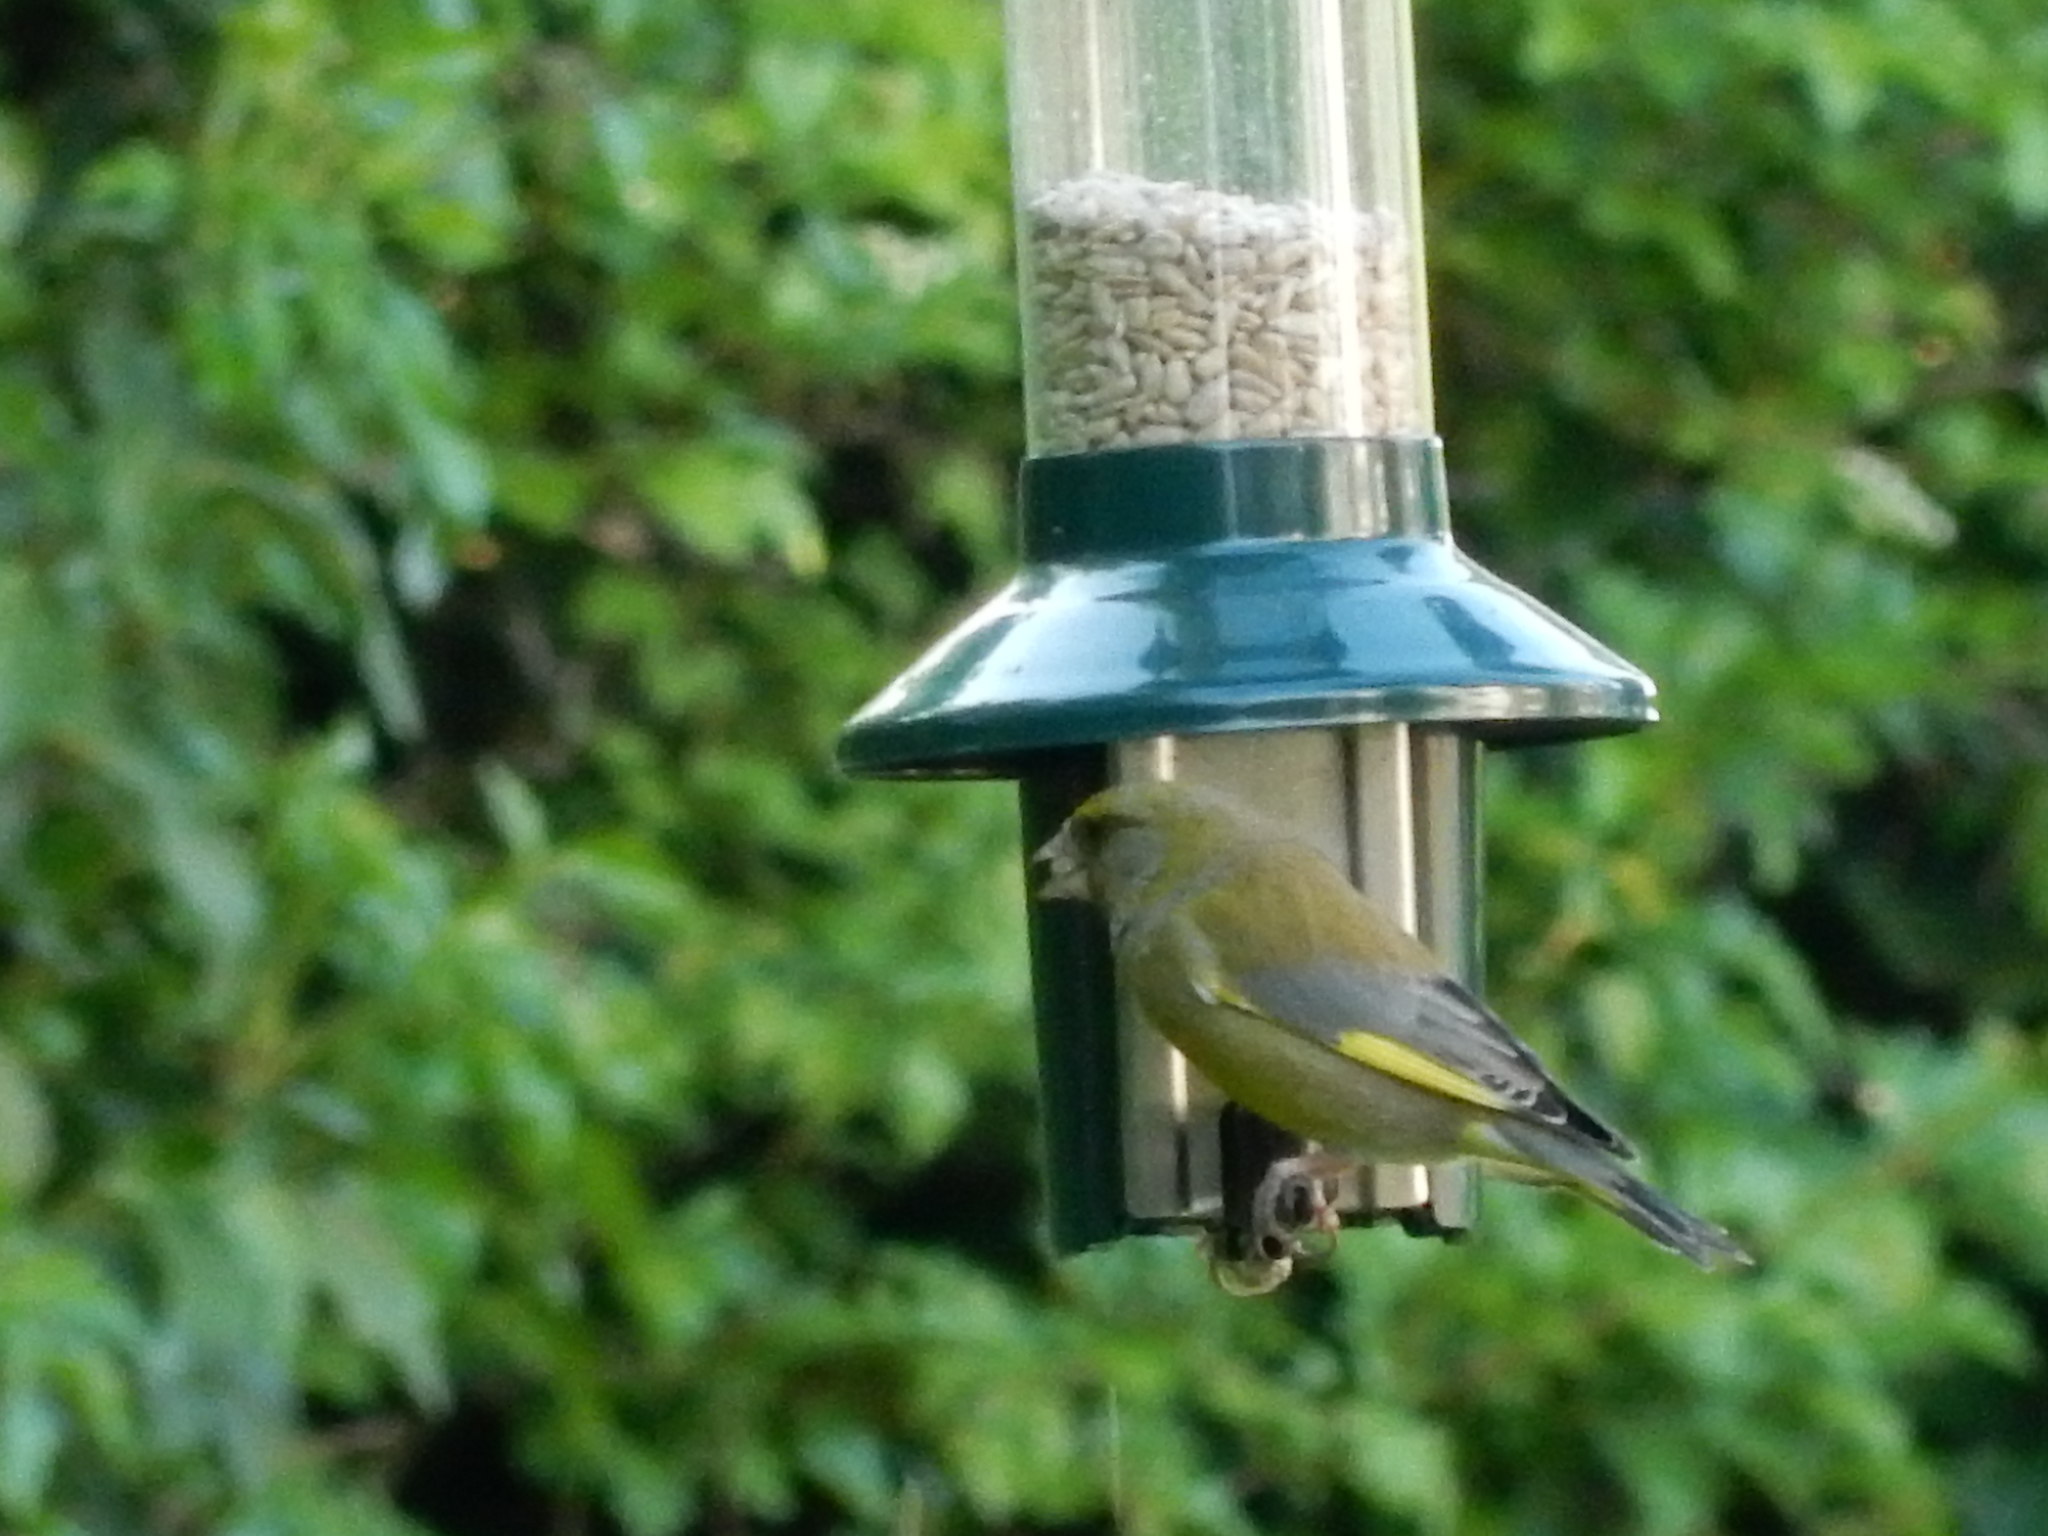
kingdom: Plantae
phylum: Tracheophyta
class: Liliopsida
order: Poales
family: Poaceae
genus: Chloris
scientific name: Chloris chloris
